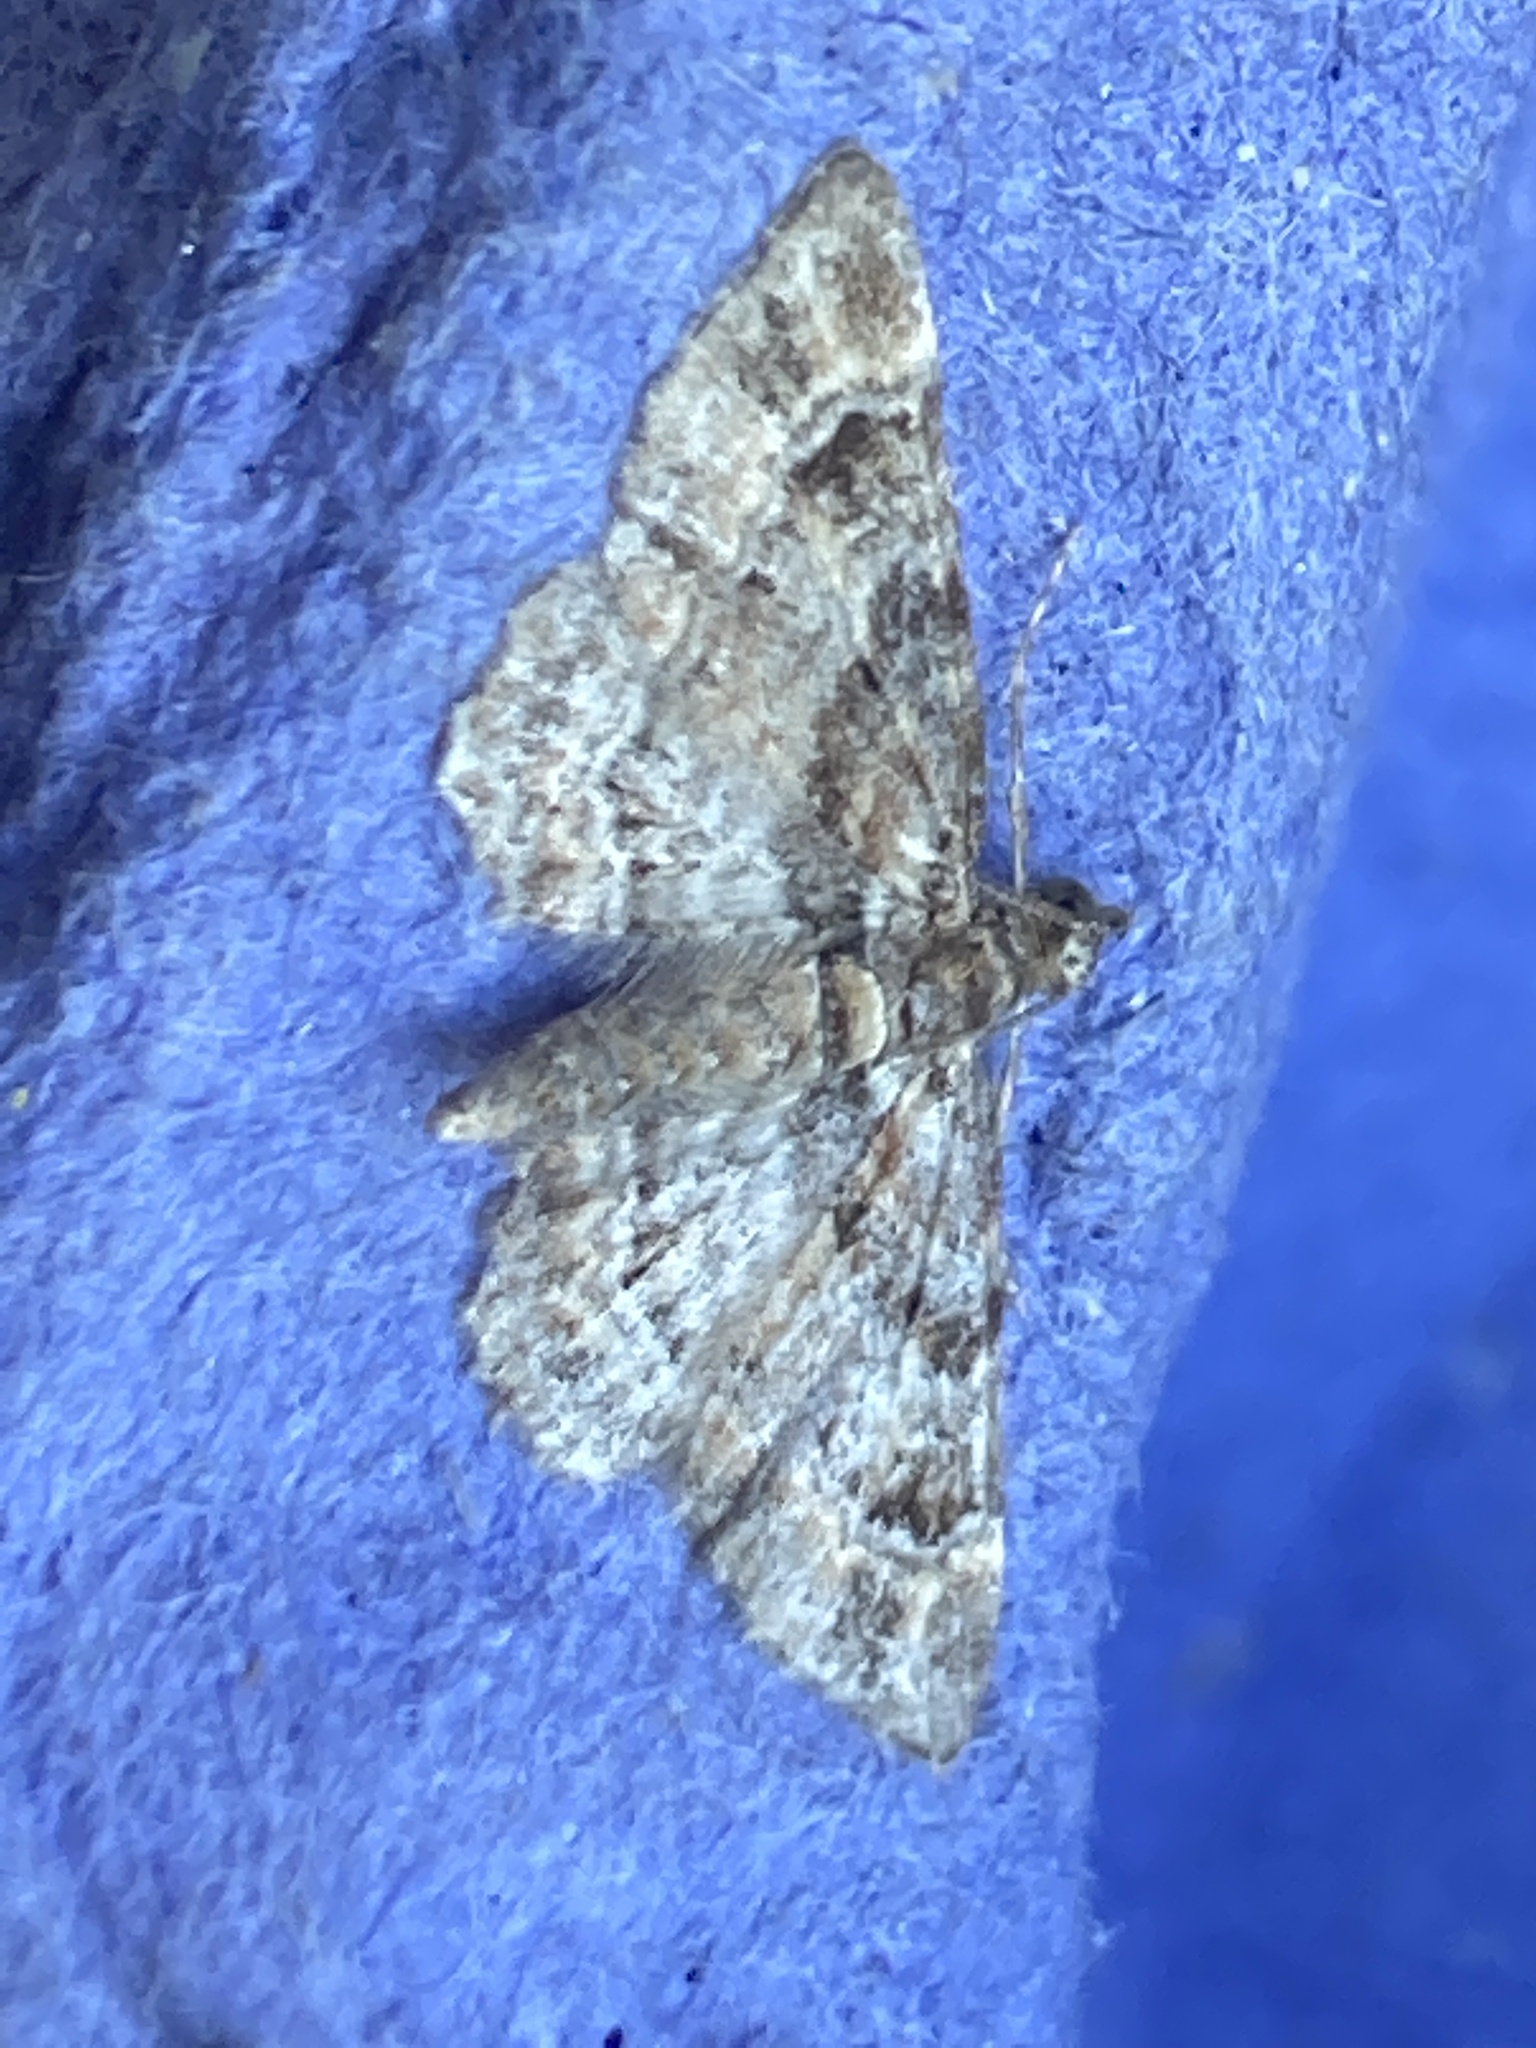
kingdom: Animalia
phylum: Arthropoda
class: Insecta
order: Lepidoptera
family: Geometridae
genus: Gymnoscelis
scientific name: Gymnoscelis rufifasciata
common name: Double-striped pug
